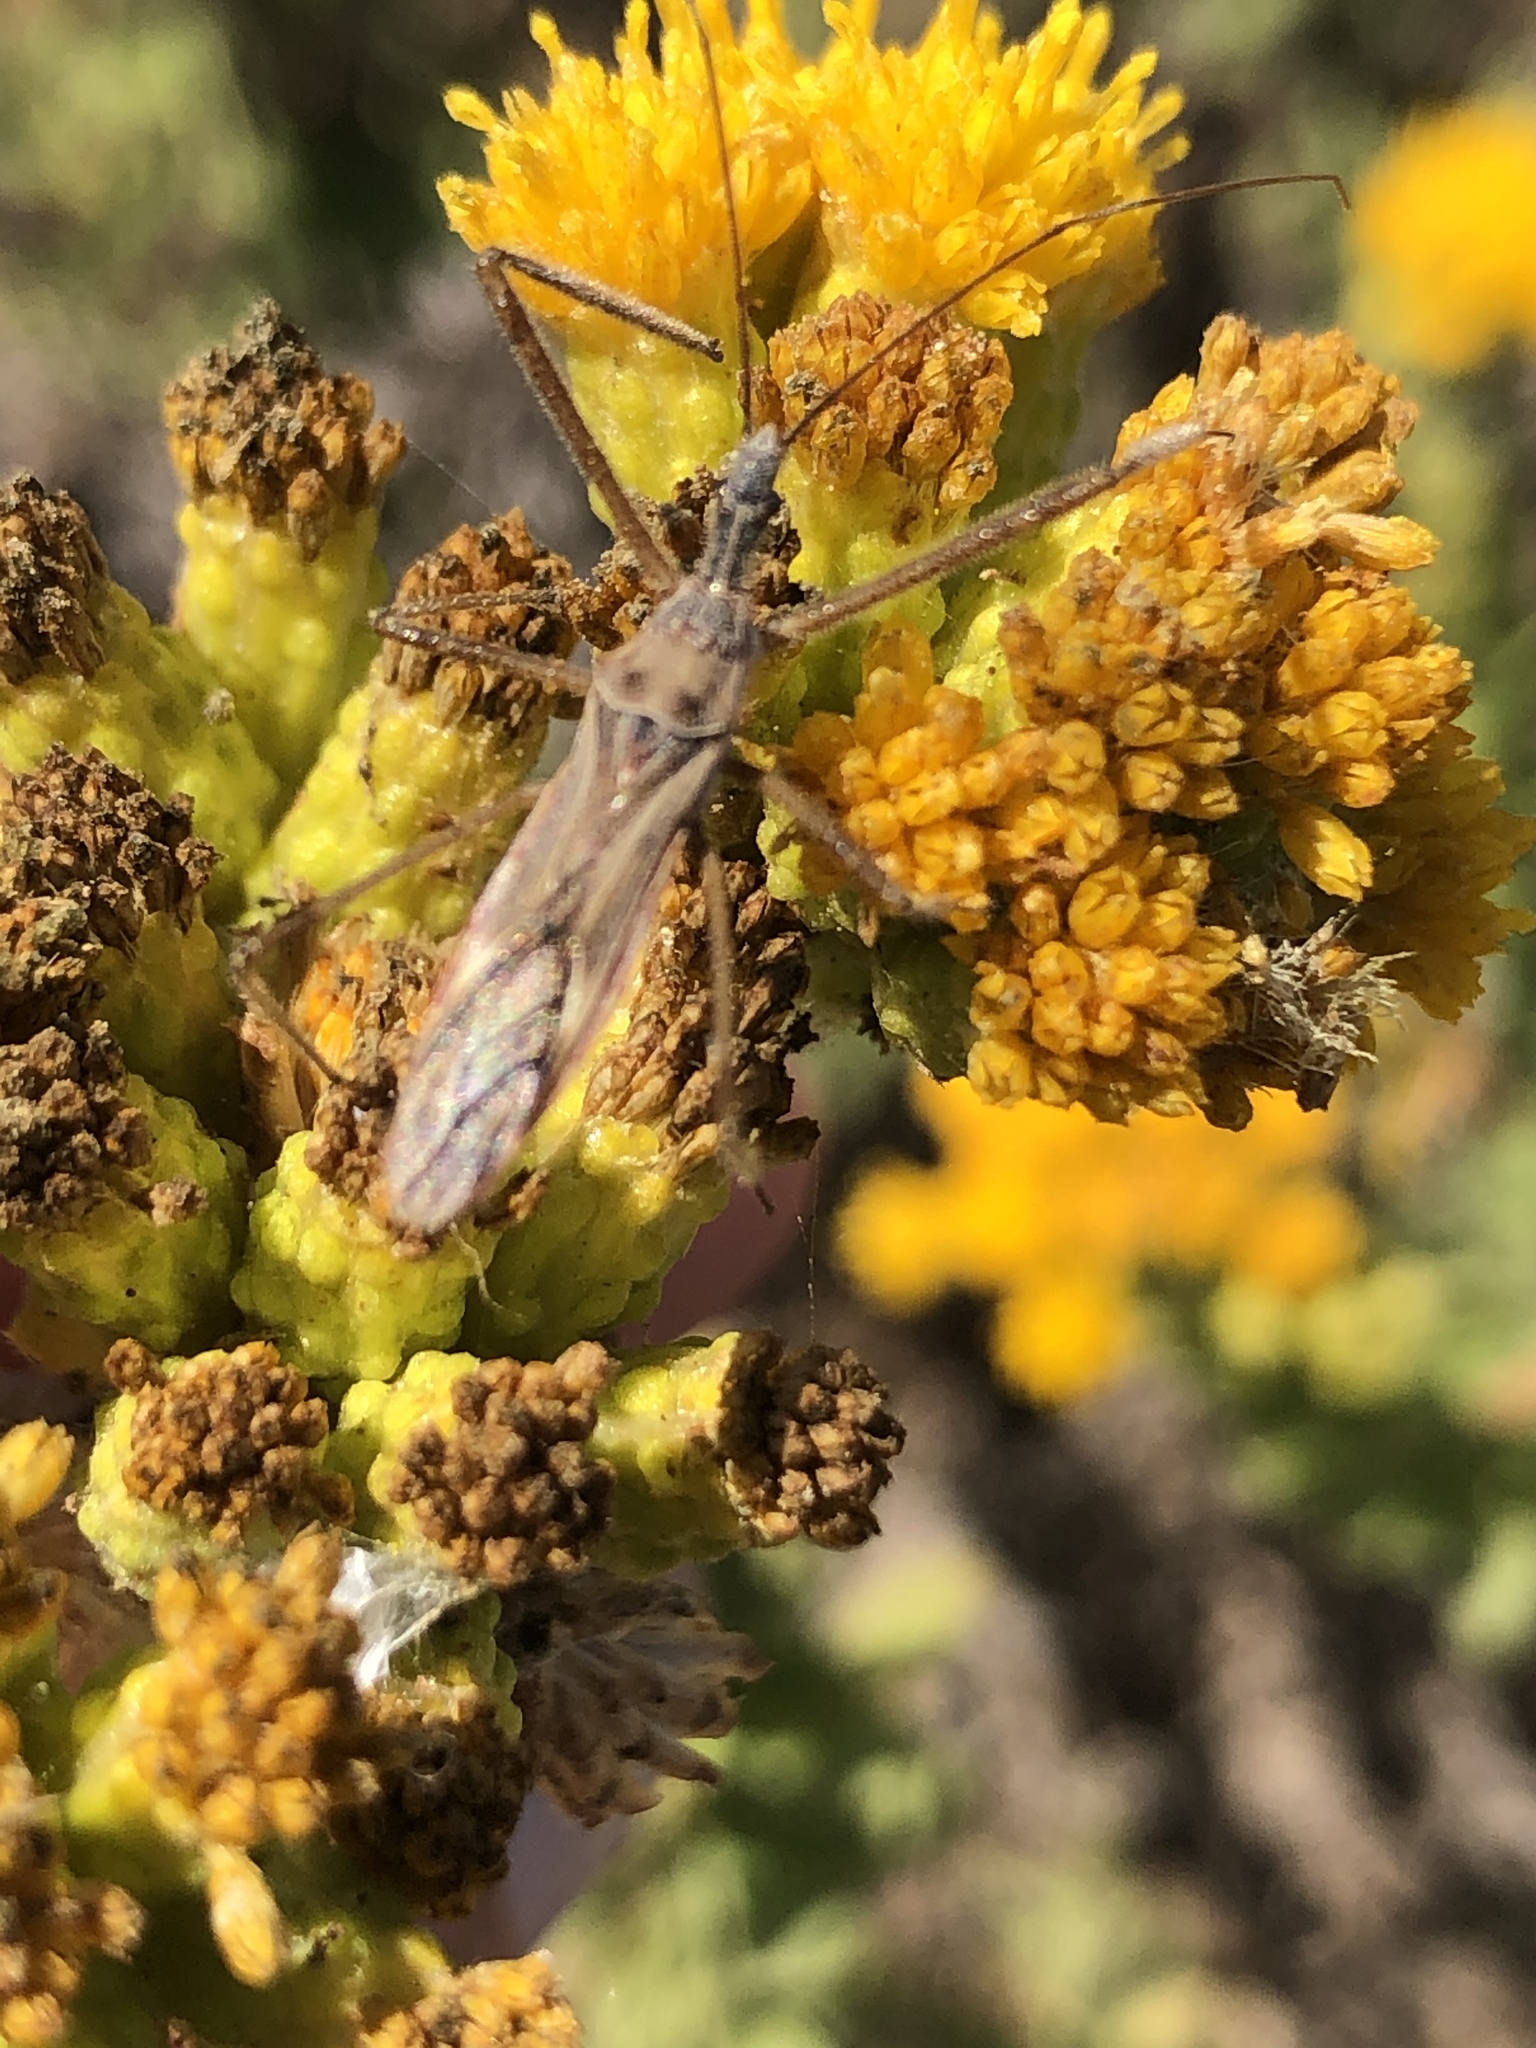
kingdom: Animalia
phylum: Arthropoda
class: Insecta
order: Hemiptera
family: Reduviidae
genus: Zelus
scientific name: Zelus tetracanthus
